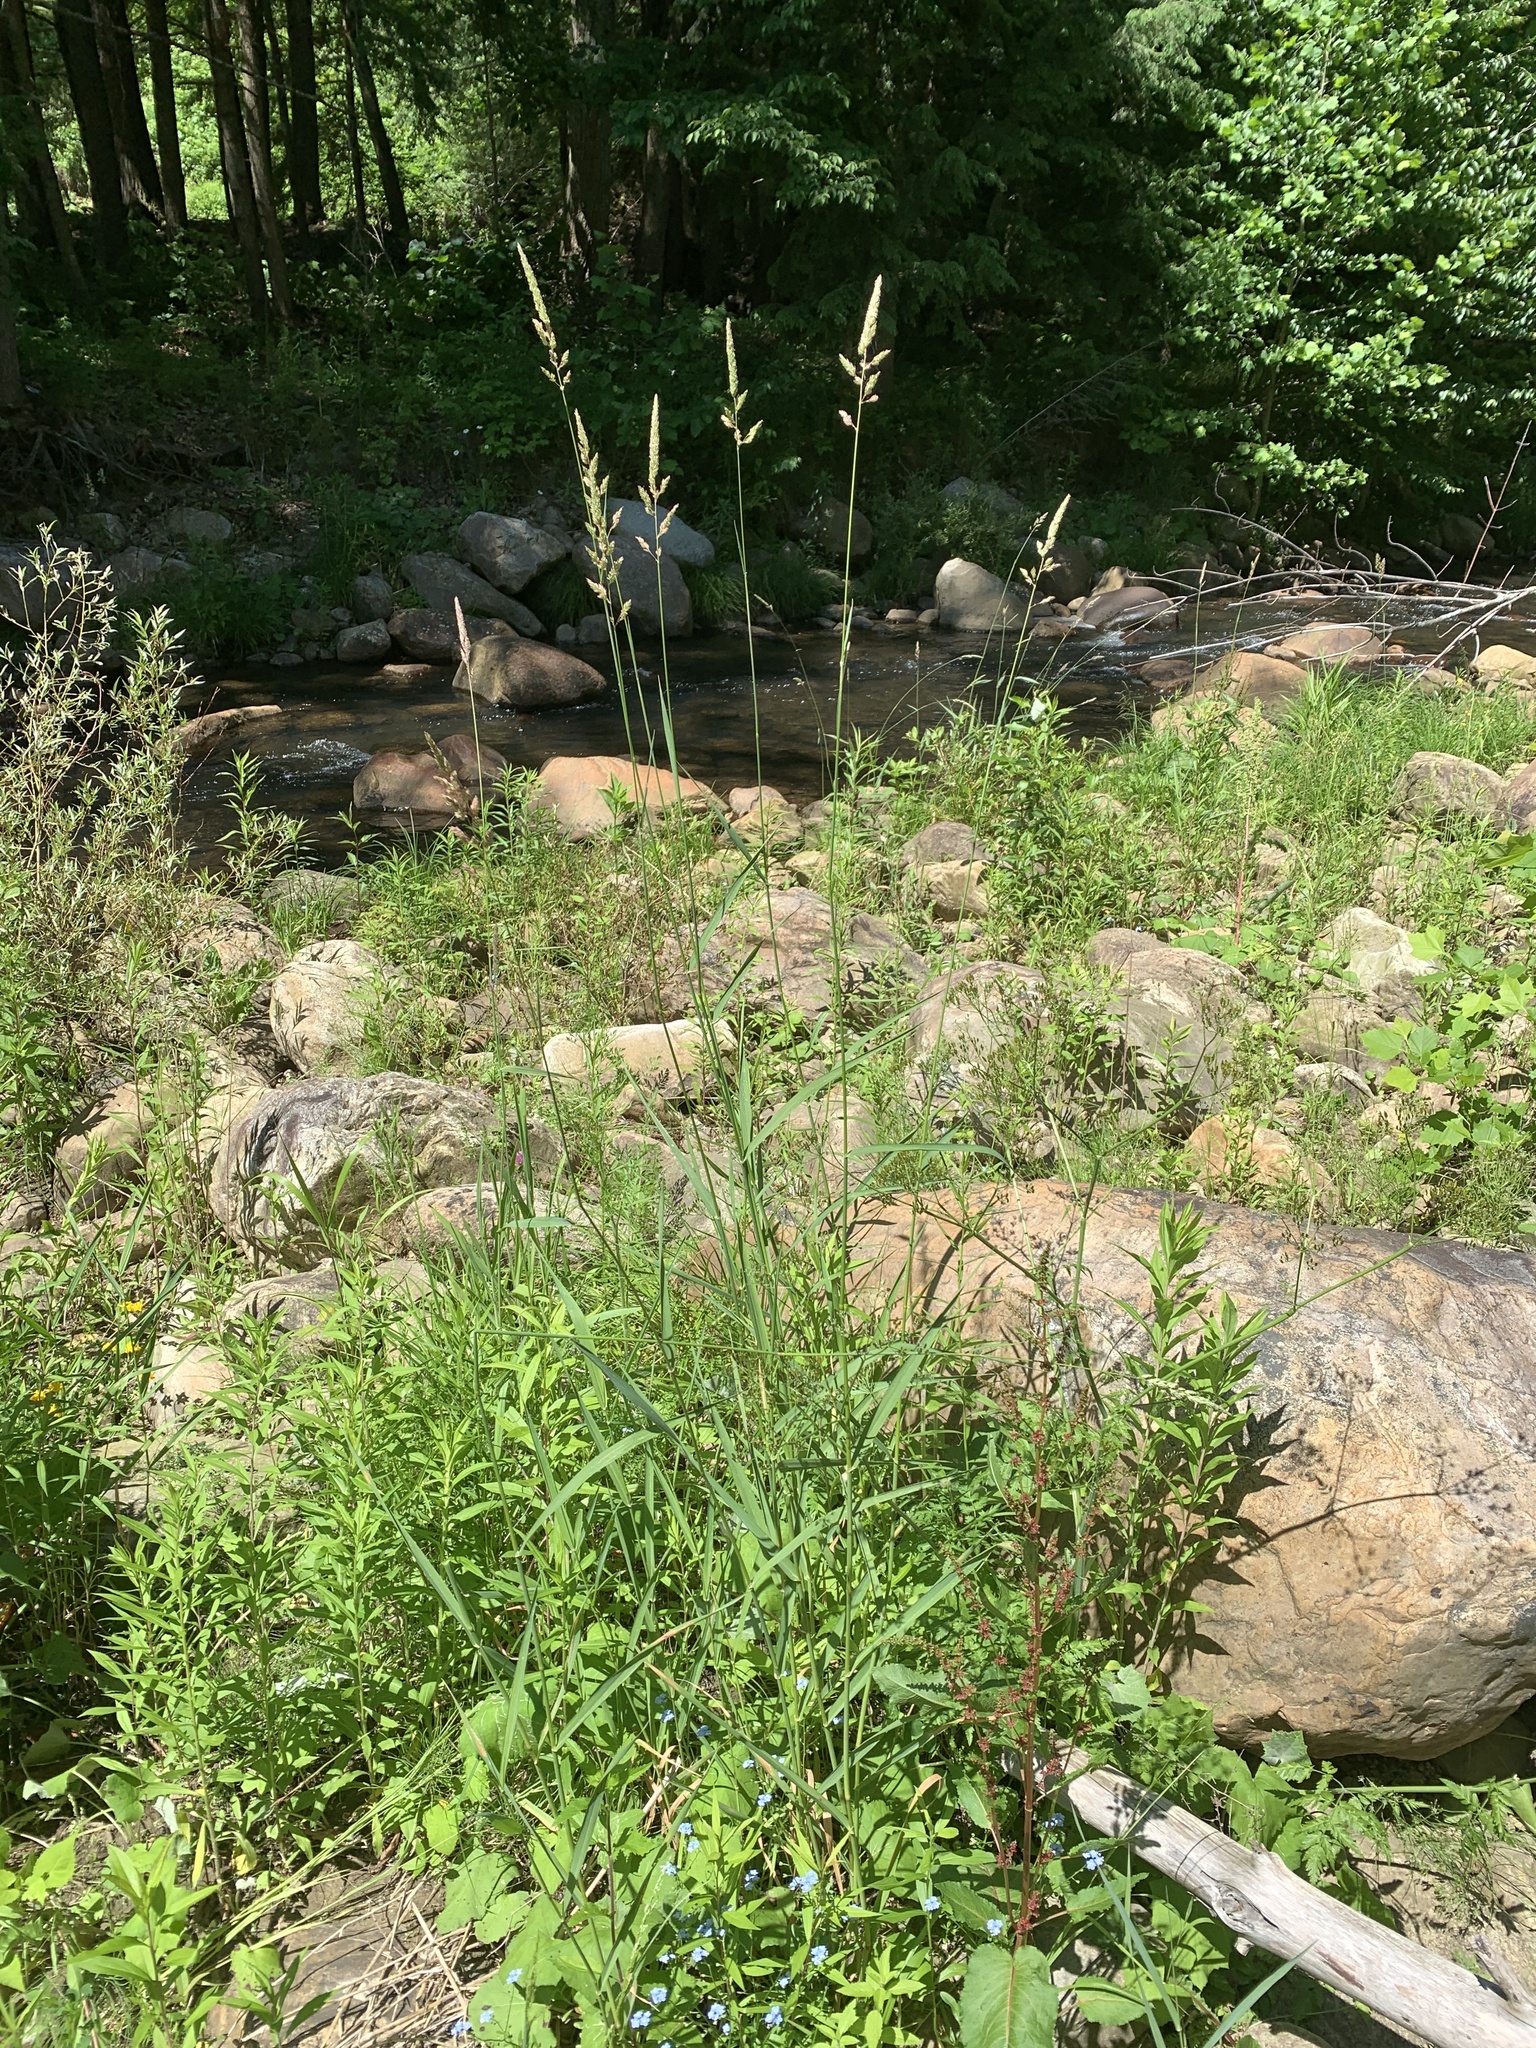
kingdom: Plantae
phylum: Tracheophyta
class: Liliopsida
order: Poales
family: Poaceae
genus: Phalaris
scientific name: Phalaris arundinacea
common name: Reed canary-grass
